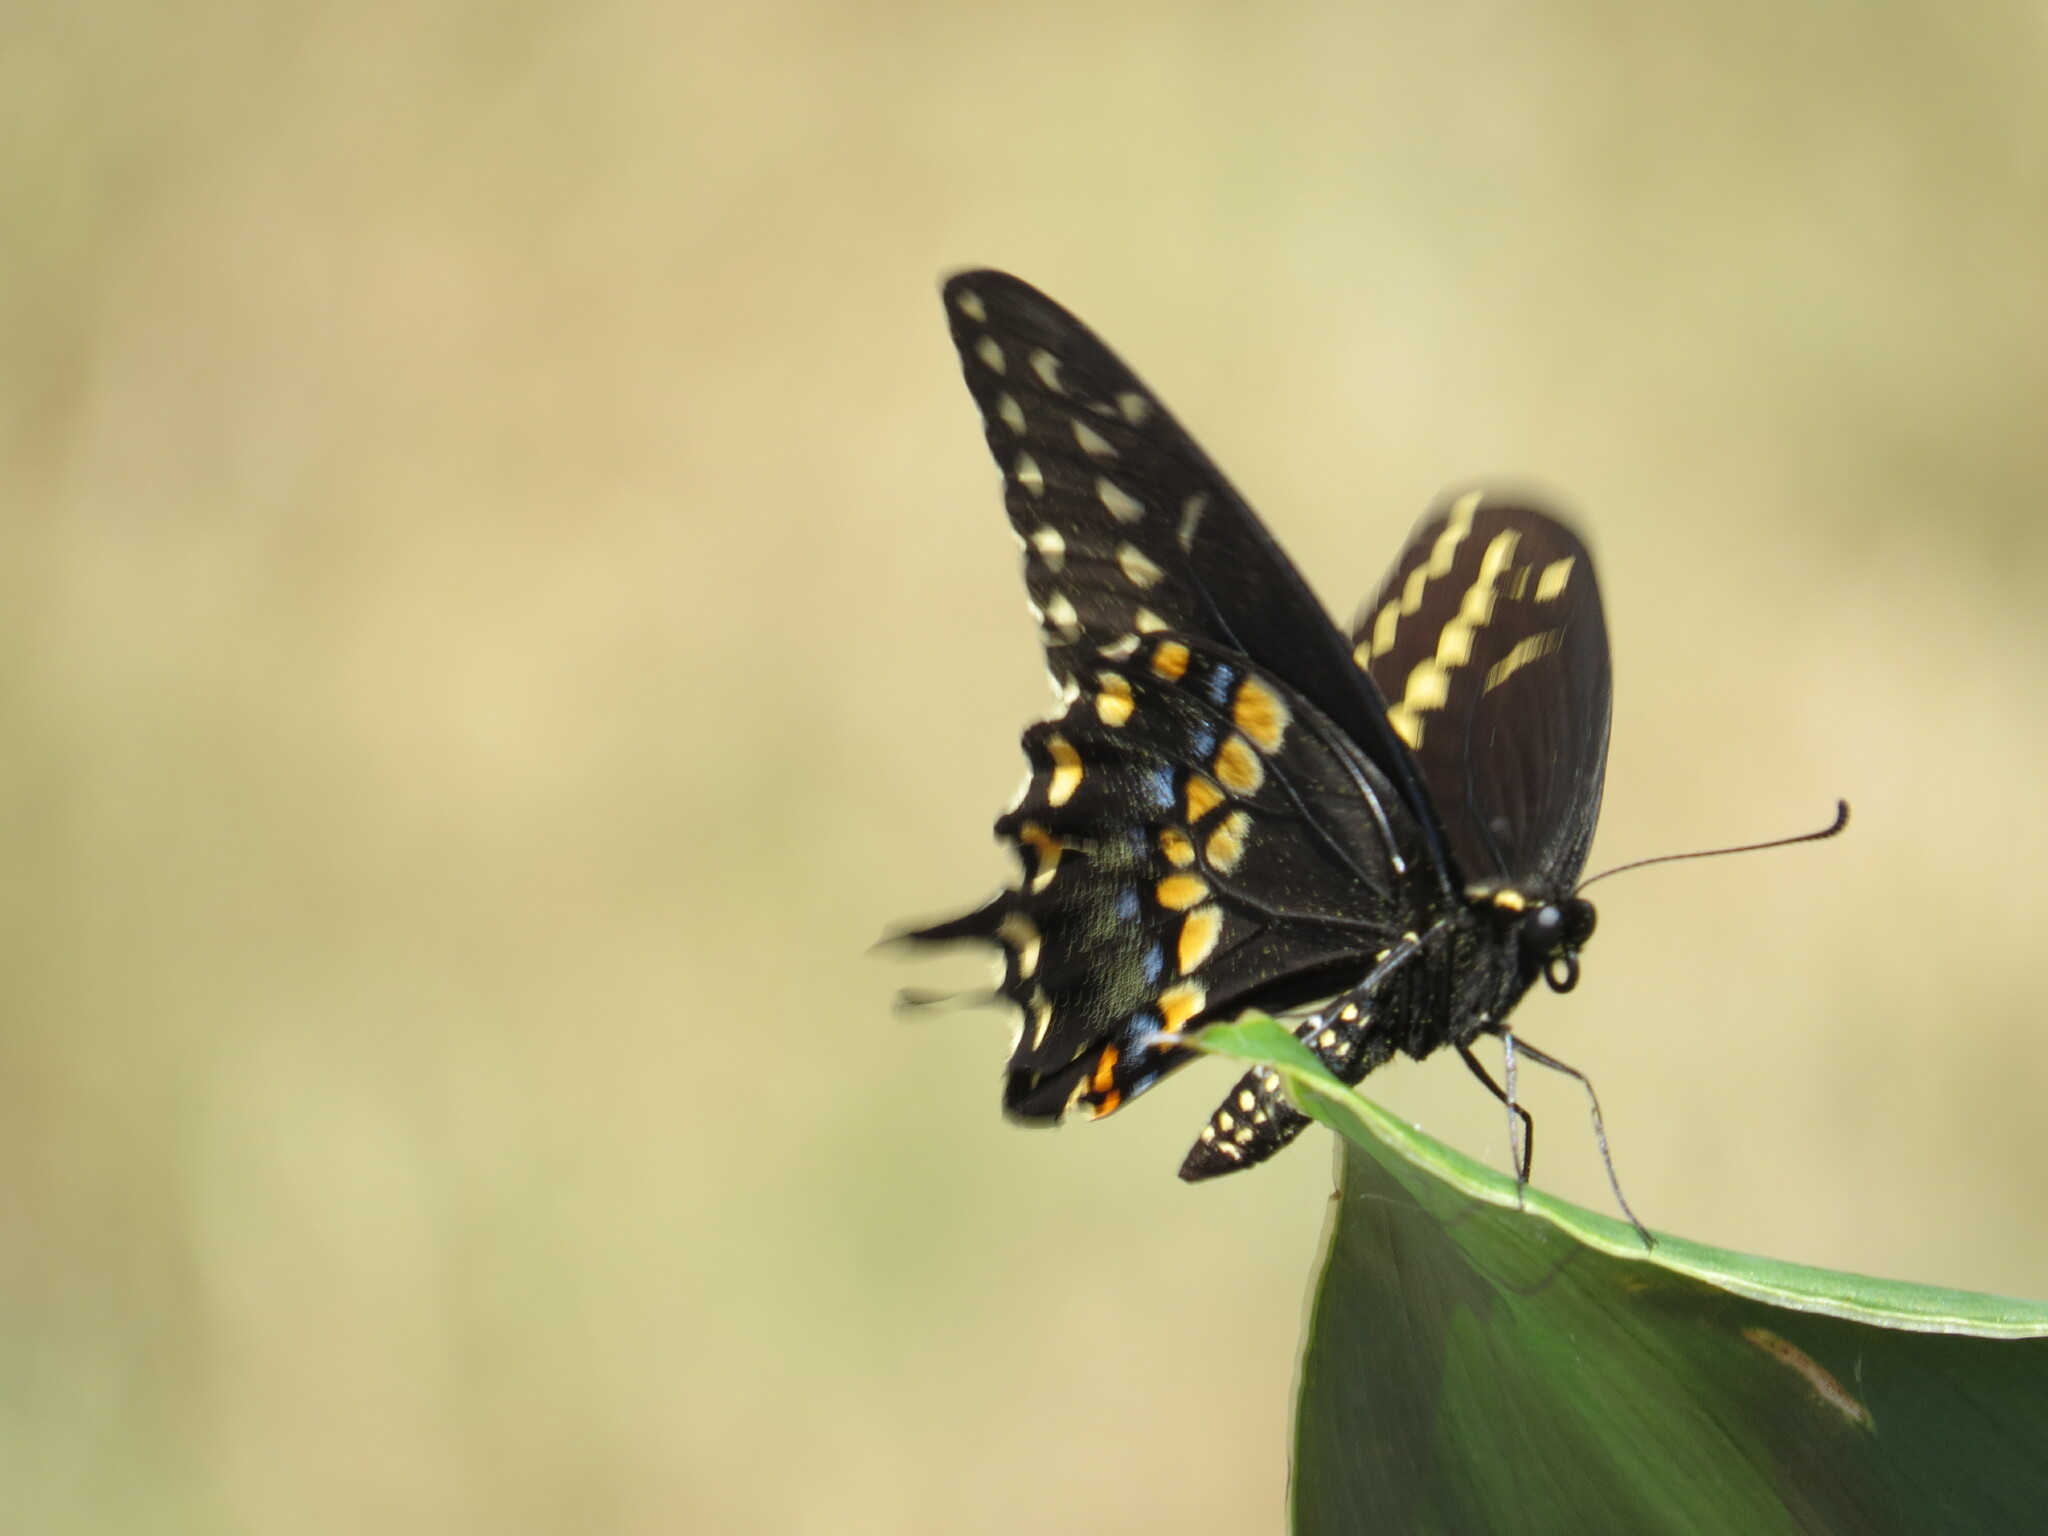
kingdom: Animalia
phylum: Arthropoda
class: Insecta
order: Lepidoptera
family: Papilionidae
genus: Papilio
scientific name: Papilio polyxenes
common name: Black swallowtail
